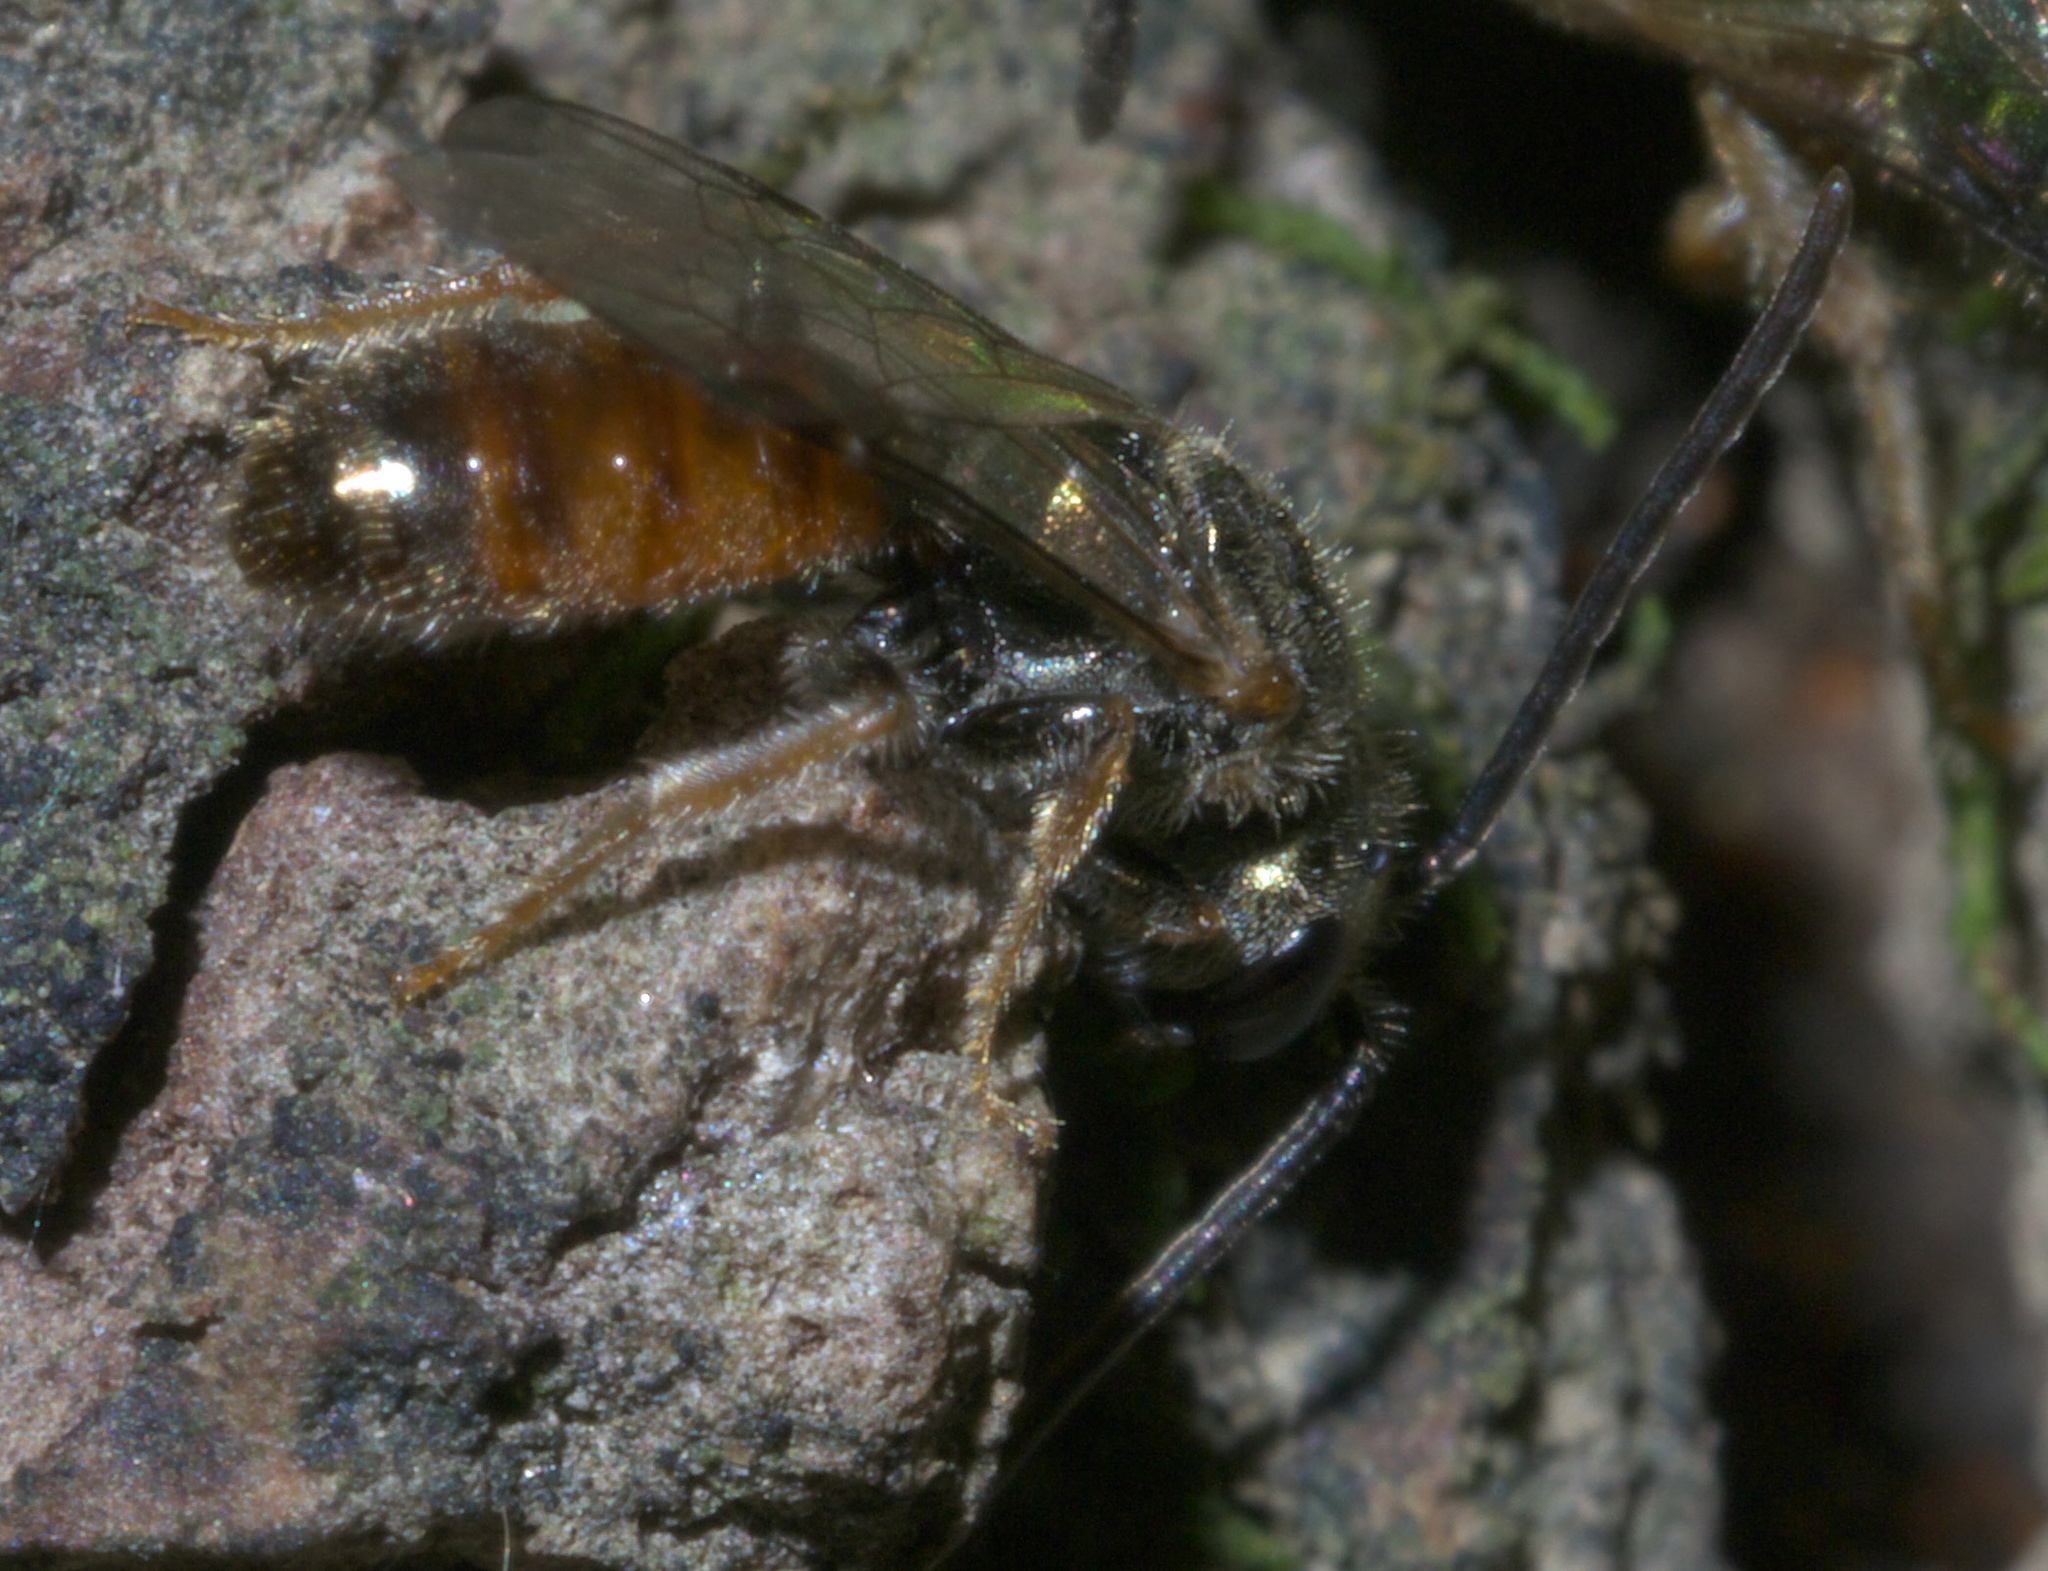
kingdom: Animalia
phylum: Arthropoda
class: Insecta
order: Hymenoptera
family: Halictidae
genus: Lasioglossum
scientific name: Lasioglossum zephyrum
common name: Zephyr sweat bee
